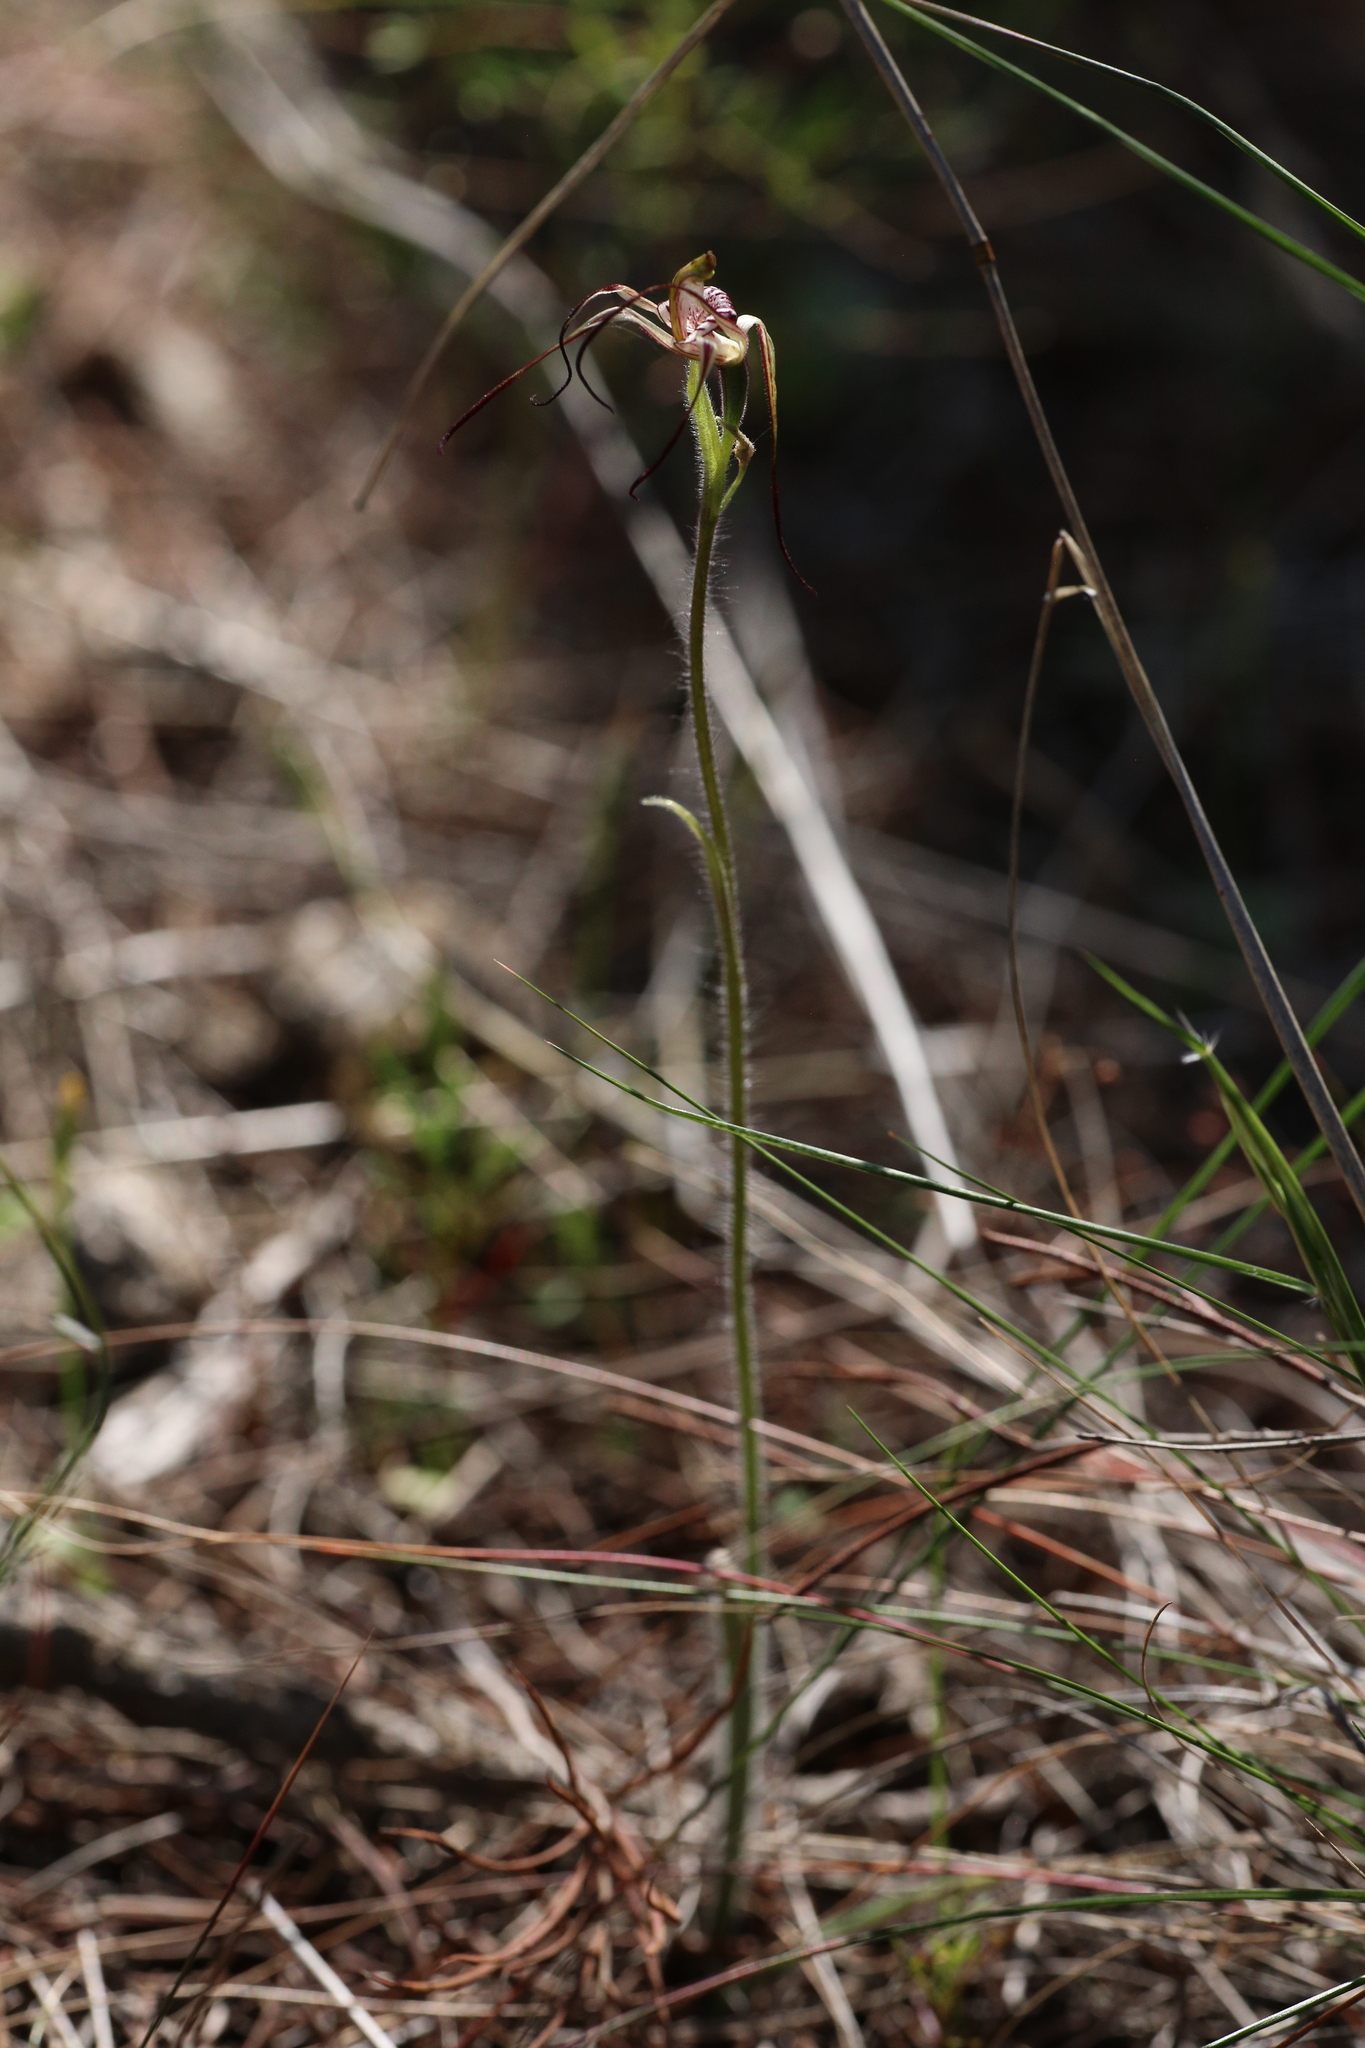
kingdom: Plantae
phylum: Tracheophyta
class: Liliopsida
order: Asparagales
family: Orchidaceae
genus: Caladenia
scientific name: Caladenia radialis
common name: Drooping spider orchid
